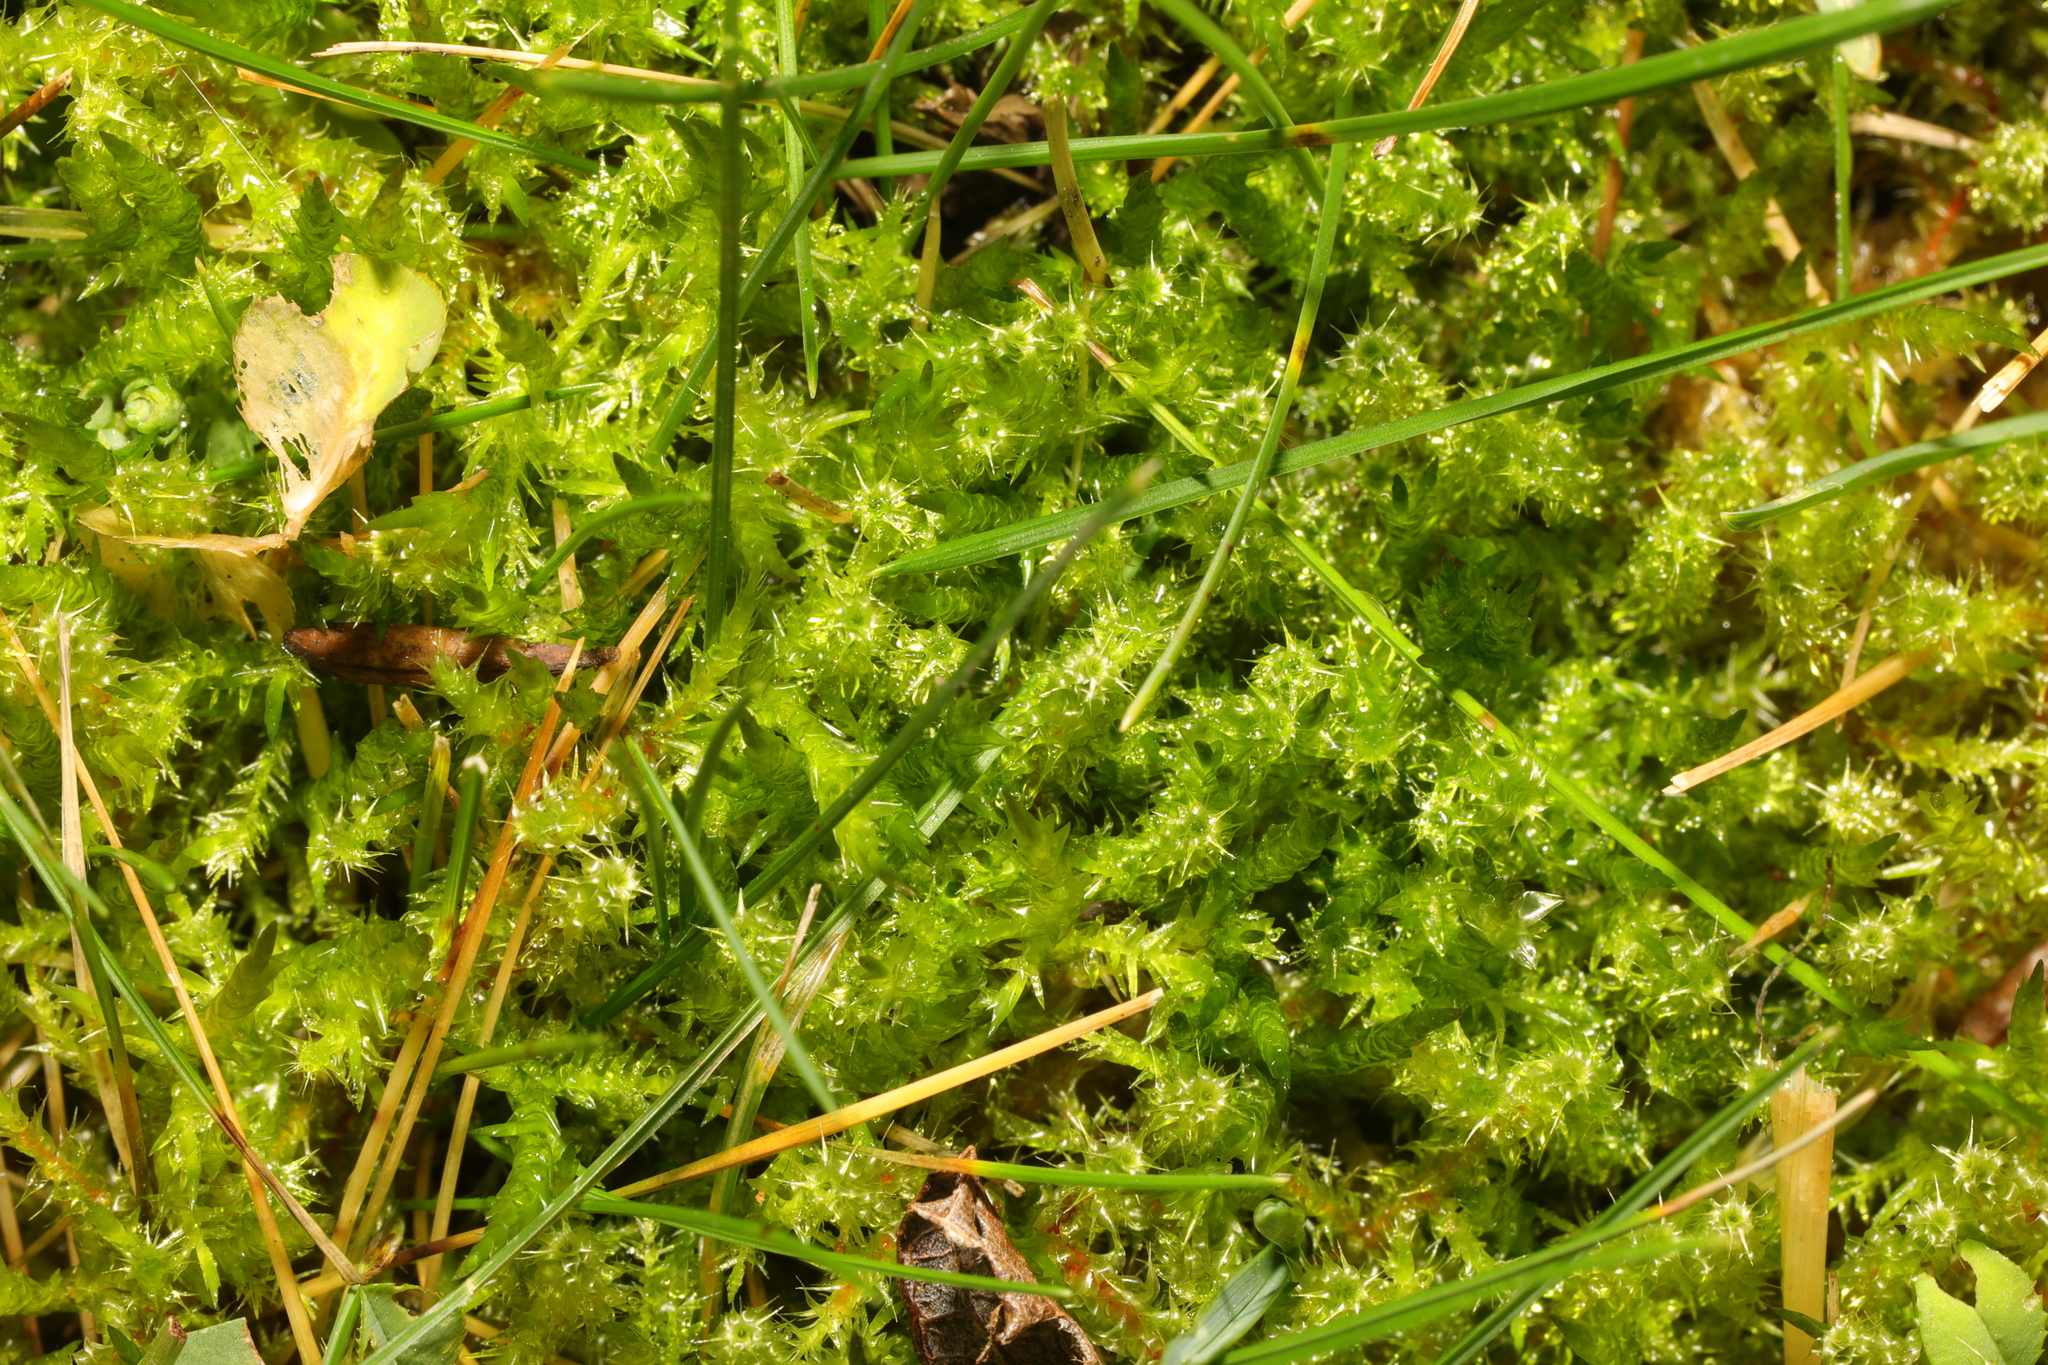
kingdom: Plantae
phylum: Bryophyta
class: Bryopsida
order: Hypnales
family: Hylocomiaceae
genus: Rhytidiadelphus
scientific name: Rhytidiadelphus squarrosus
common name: Springy turf-moss
